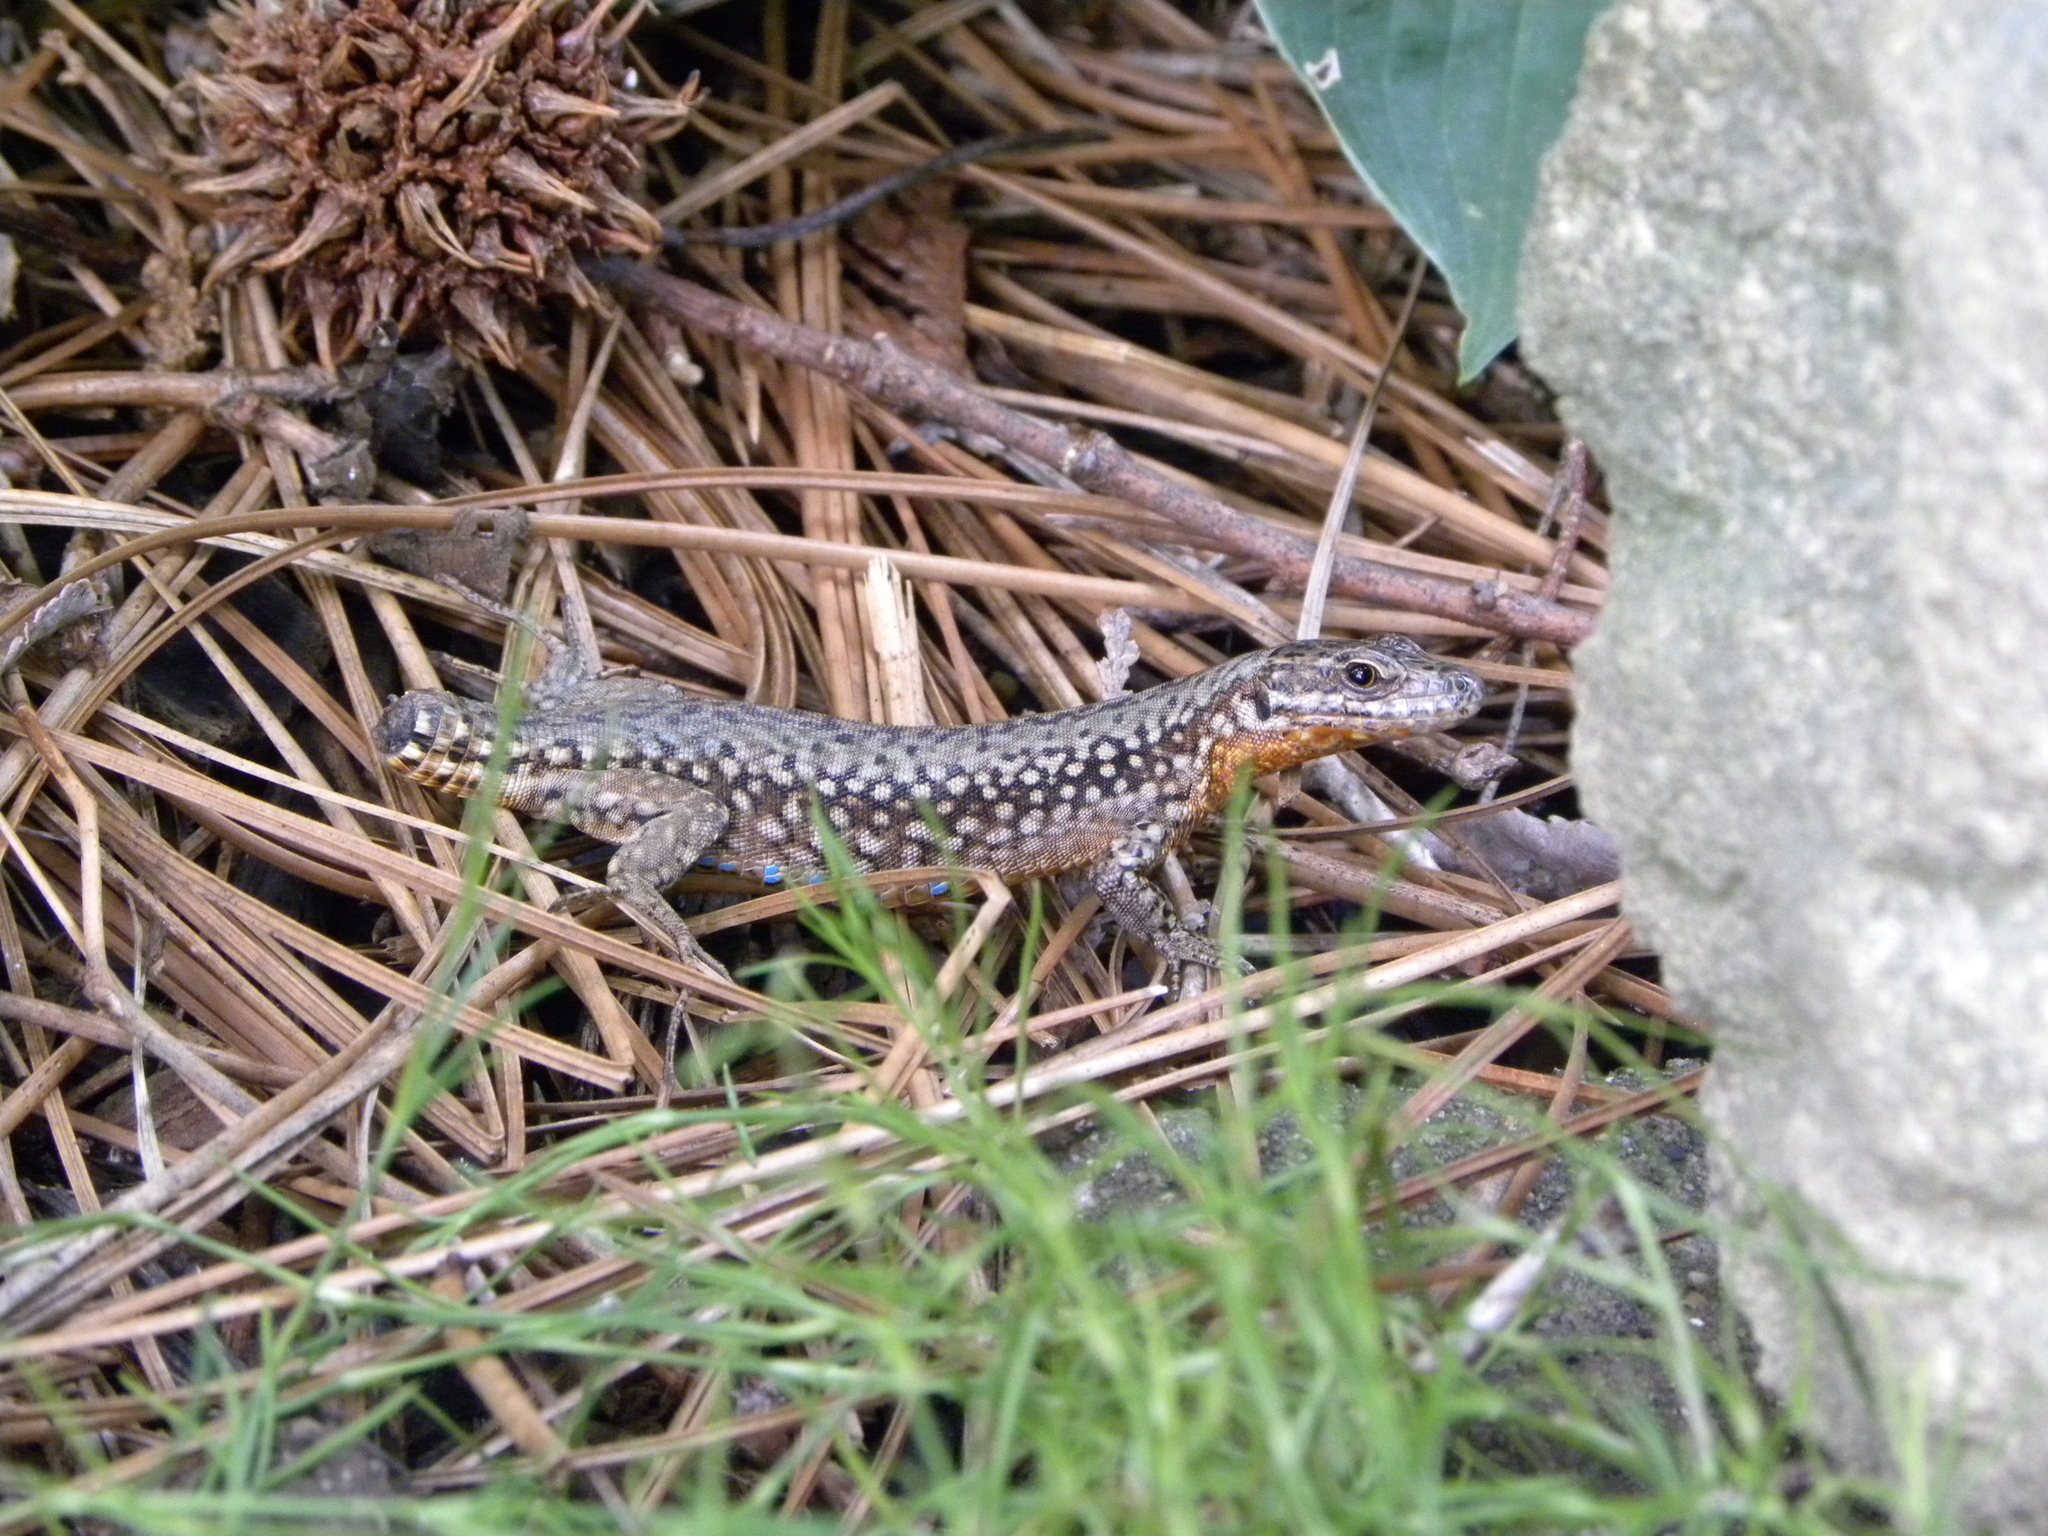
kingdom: Animalia
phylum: Chordata
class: Squamata
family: Lacertidae
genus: Podarcis
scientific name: Podarcis muralis
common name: Common wall lizard
